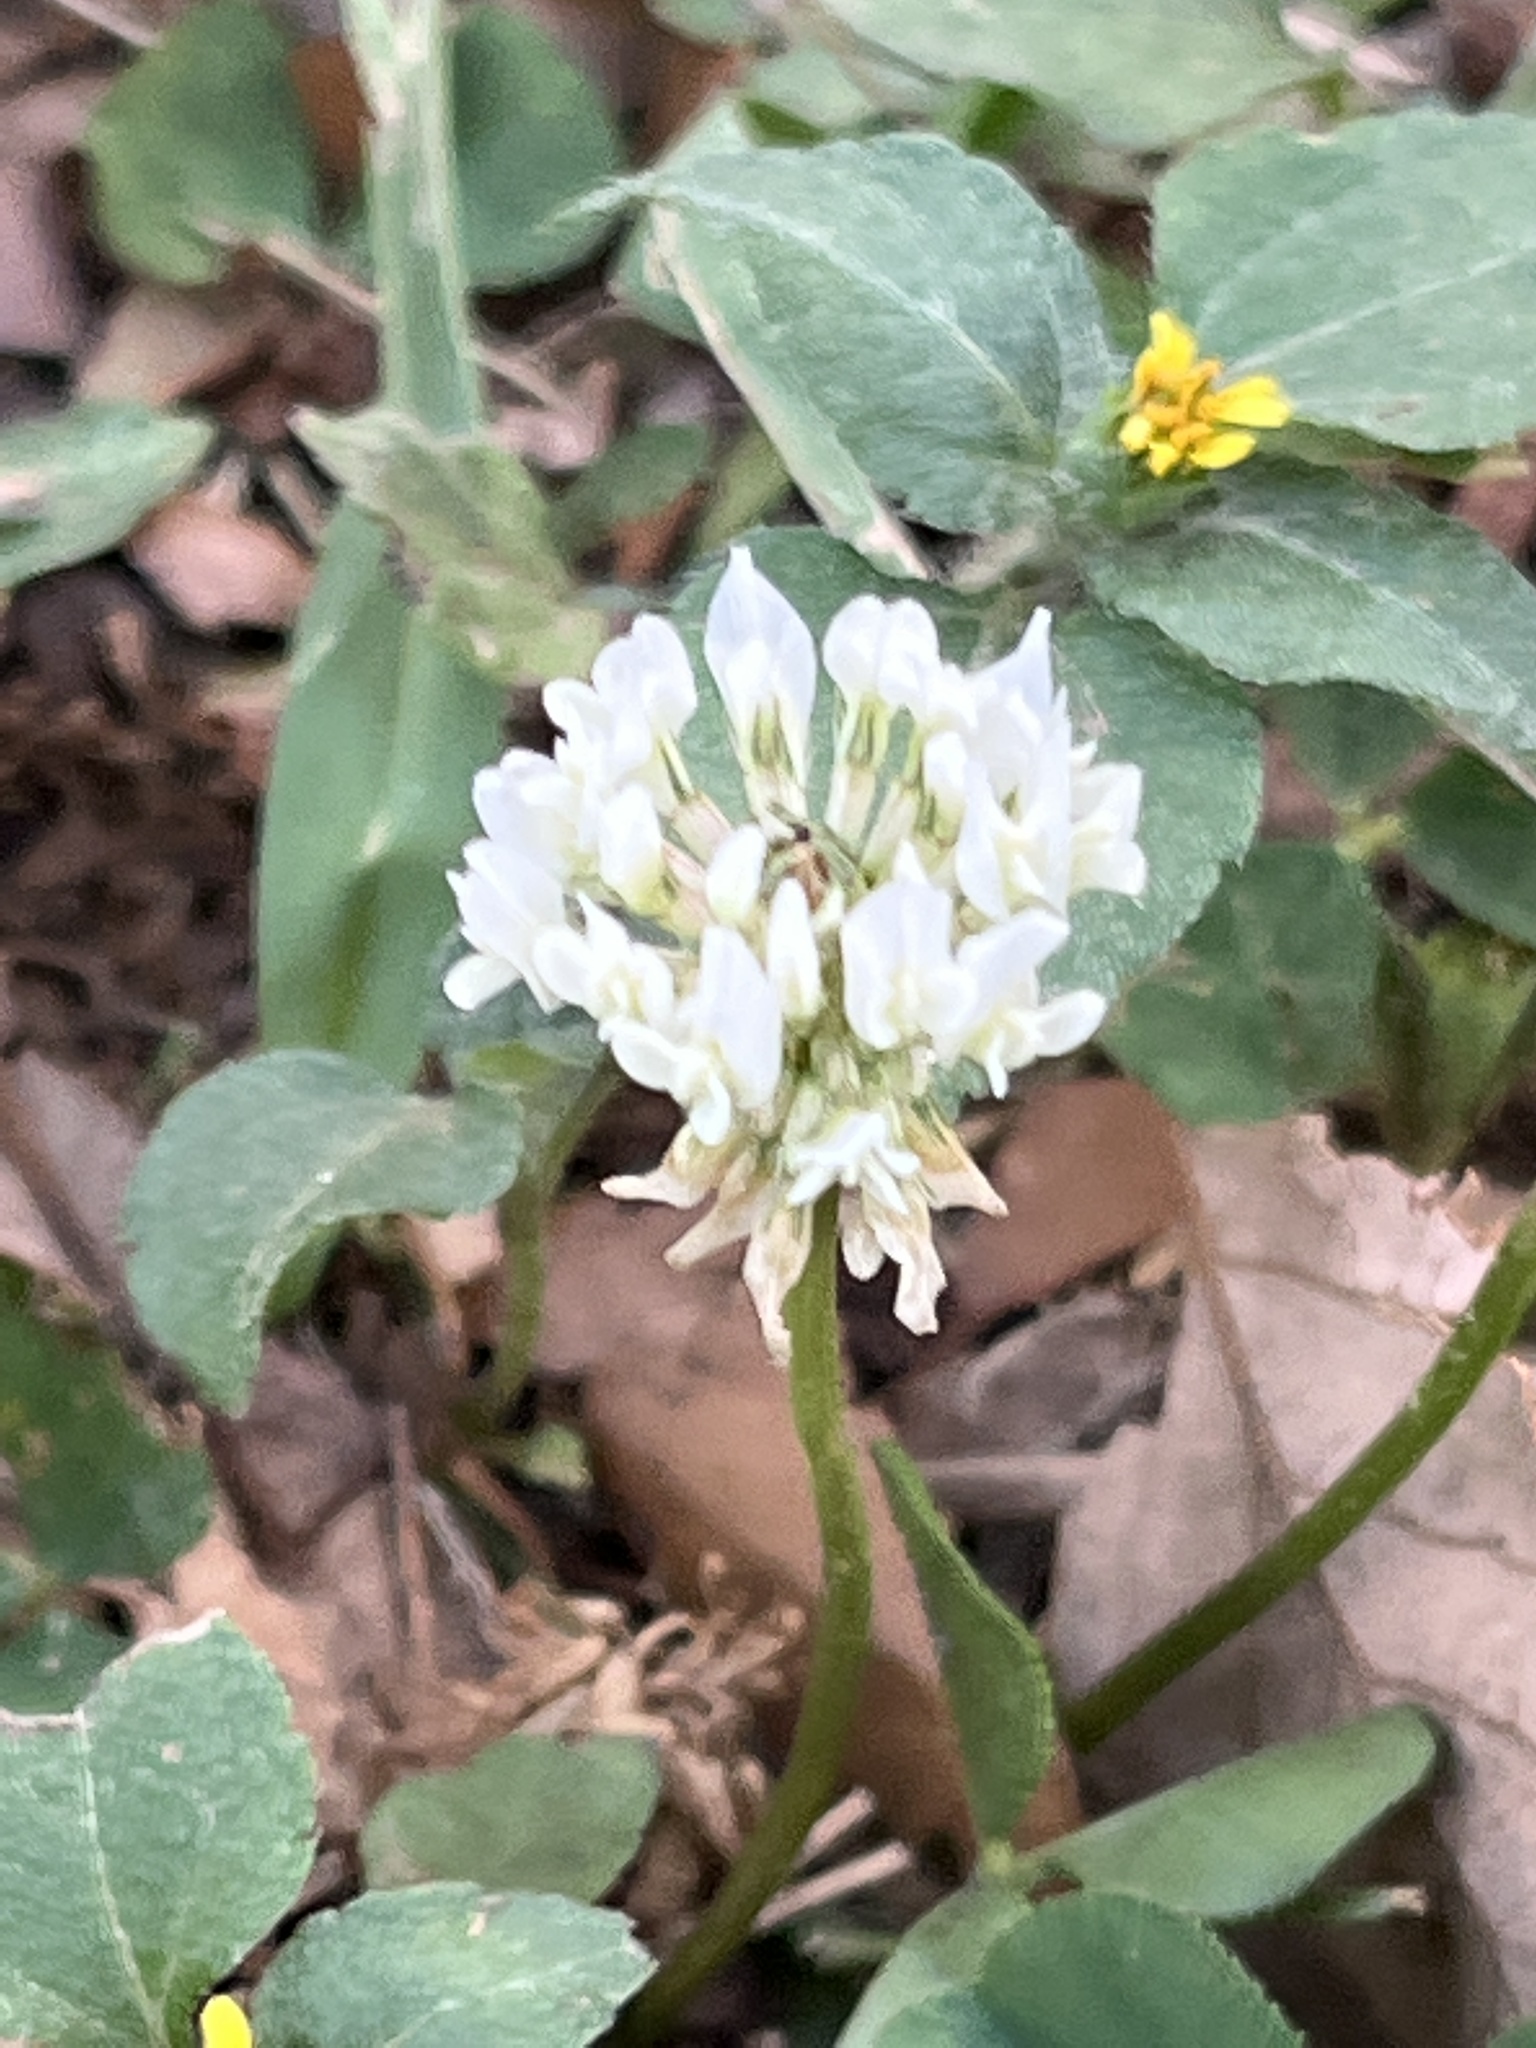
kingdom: Plantae
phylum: Tracheophyta
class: Magnoliopsida
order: Fabales
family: Fabaceae
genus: Trifolium
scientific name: Trifolium repens
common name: White clover
